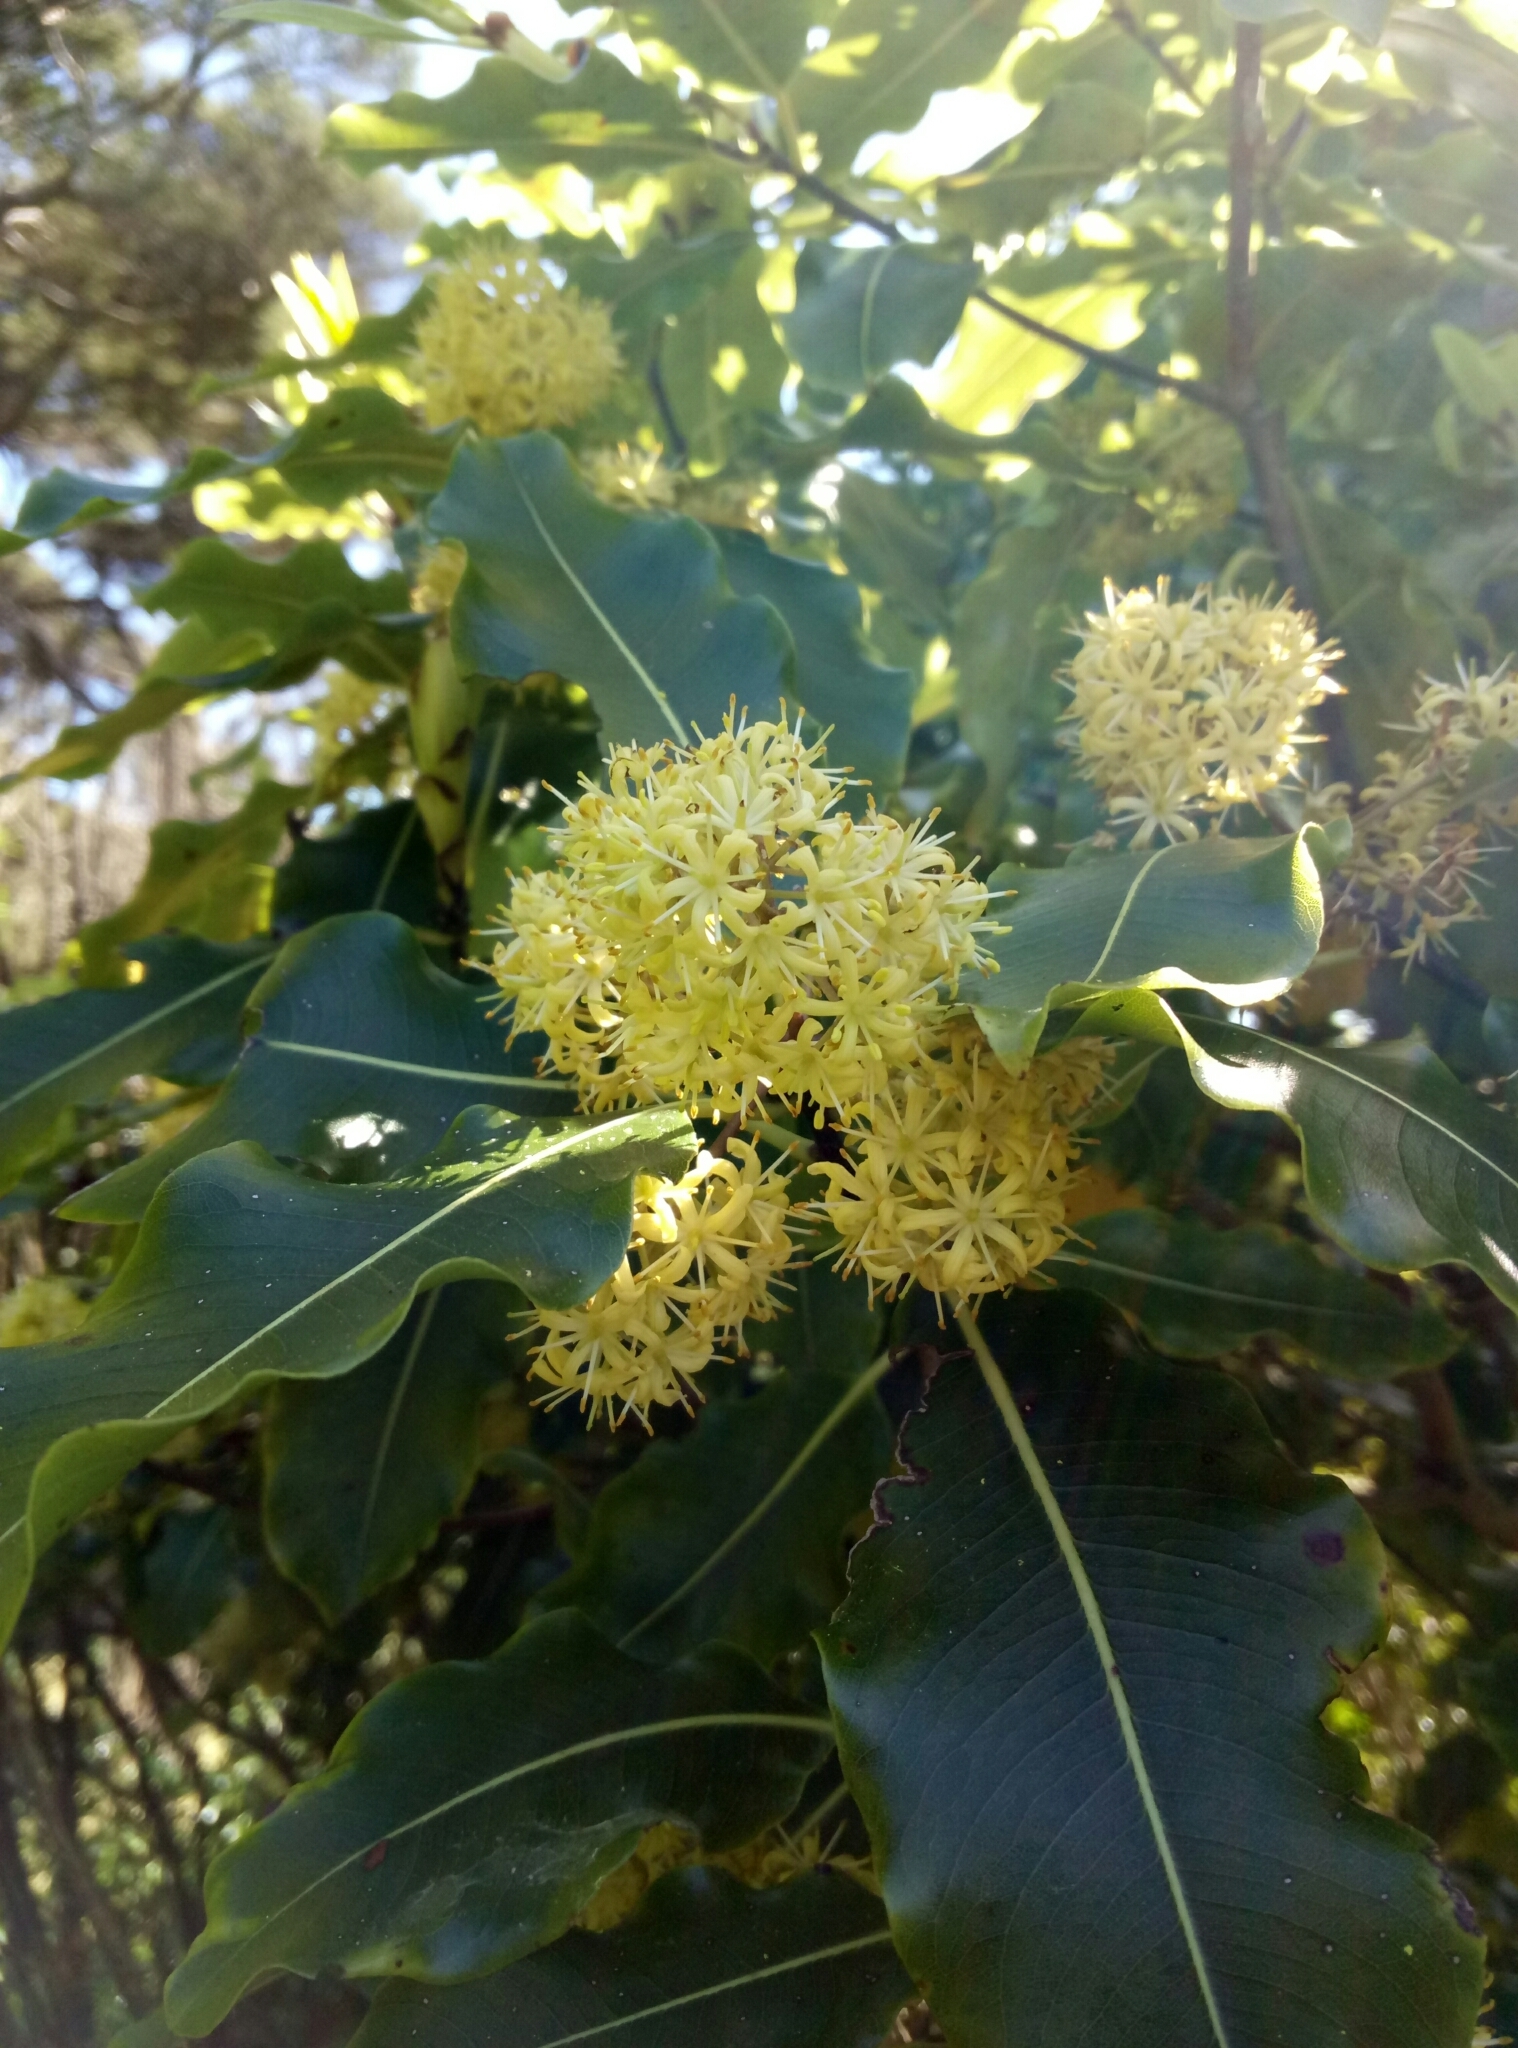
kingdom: Plantae
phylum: Tracheophyta
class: Magnoliopsida
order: Apiales
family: Pittosporaceae
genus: Pittosporum
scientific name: Pittosporum eugenioides
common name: Lemonwood
